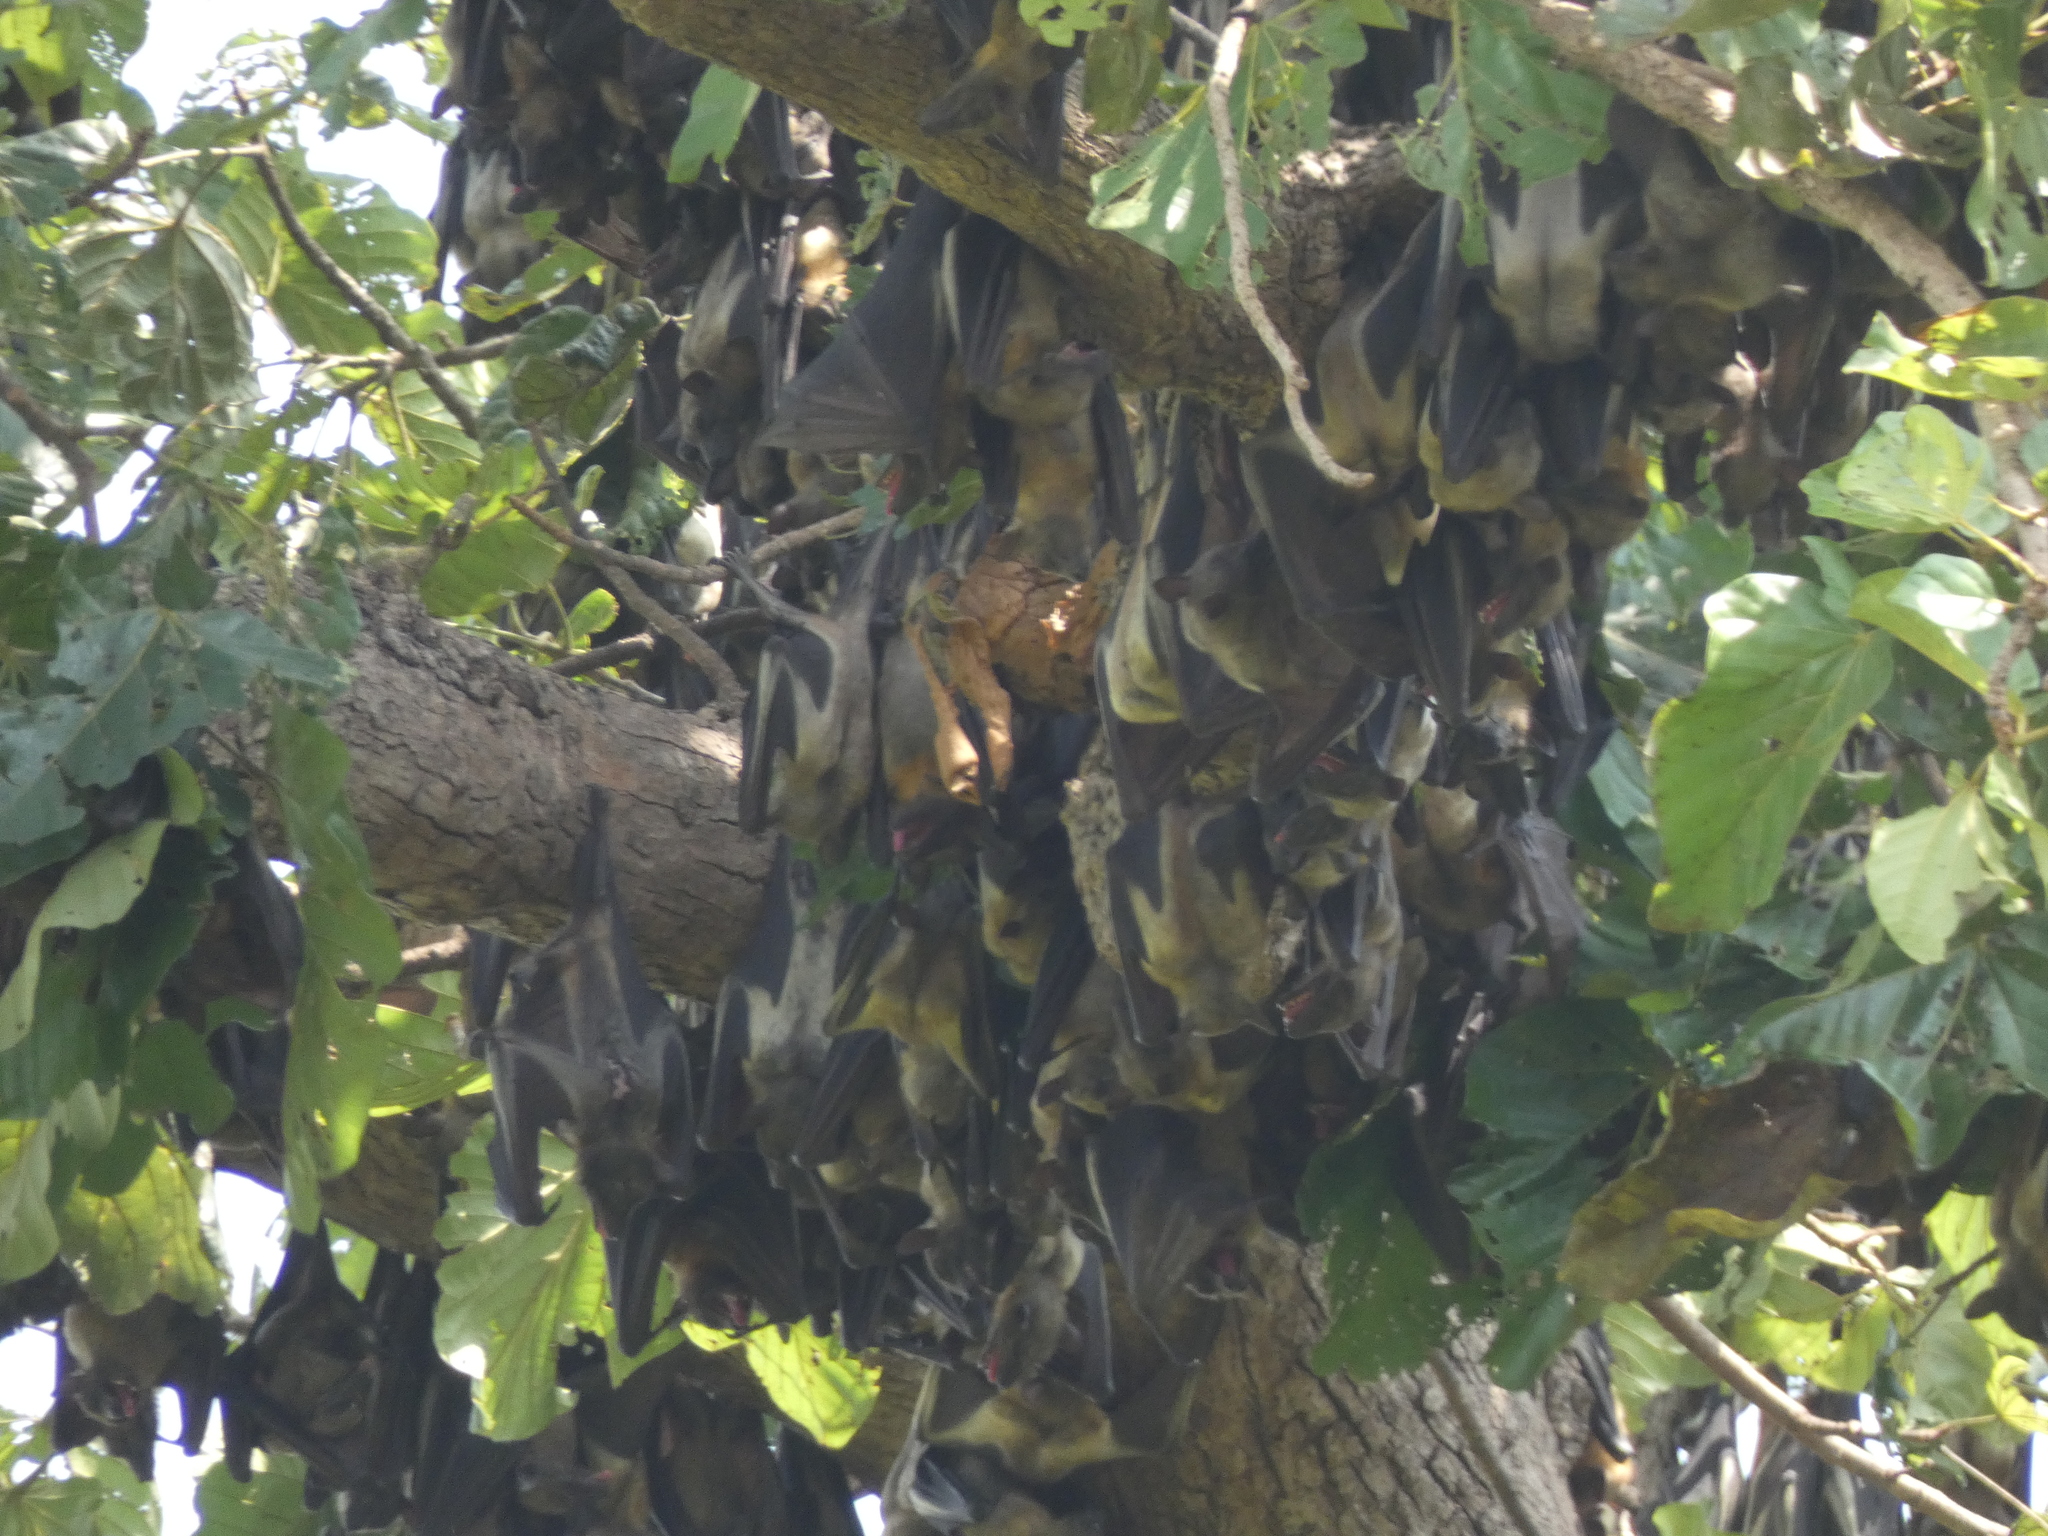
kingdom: Animalia
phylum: Chordata
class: Mammalia
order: Chiroptera
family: Pteropodidae
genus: Eidolon
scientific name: Eidolon helvum
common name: Straw-colored fruit bat
